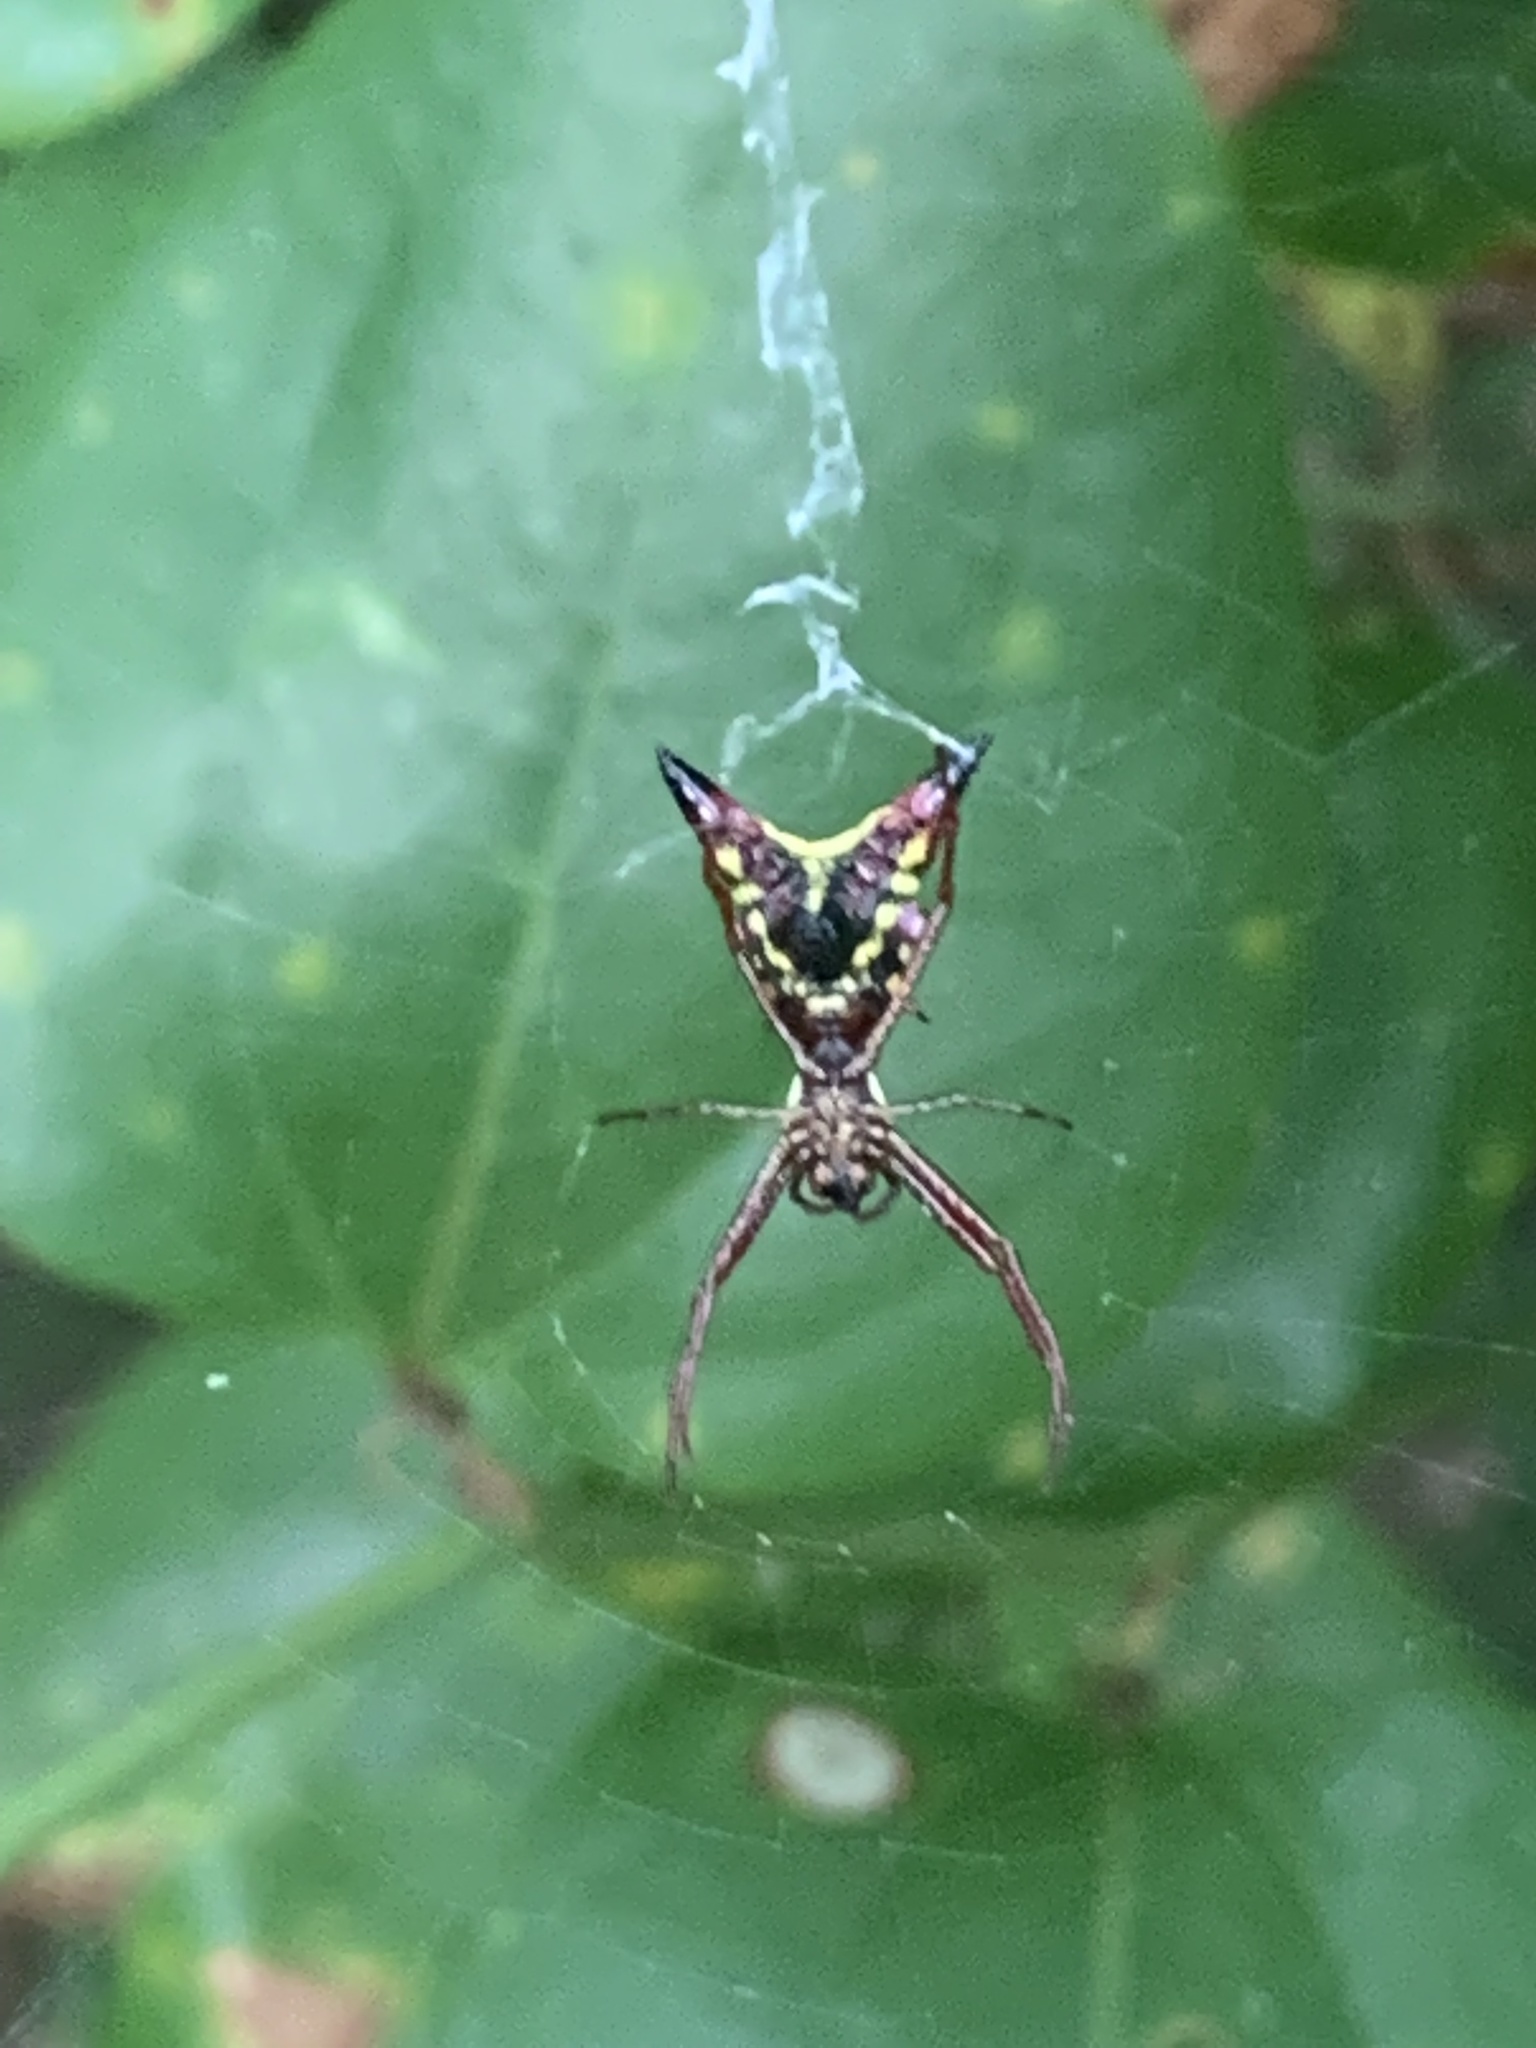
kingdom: Animalia
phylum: Arthropoda
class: Arachnida
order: Araneae
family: Araneidae
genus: Micrathena
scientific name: Micrathena sagittata
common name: Orb weavers
